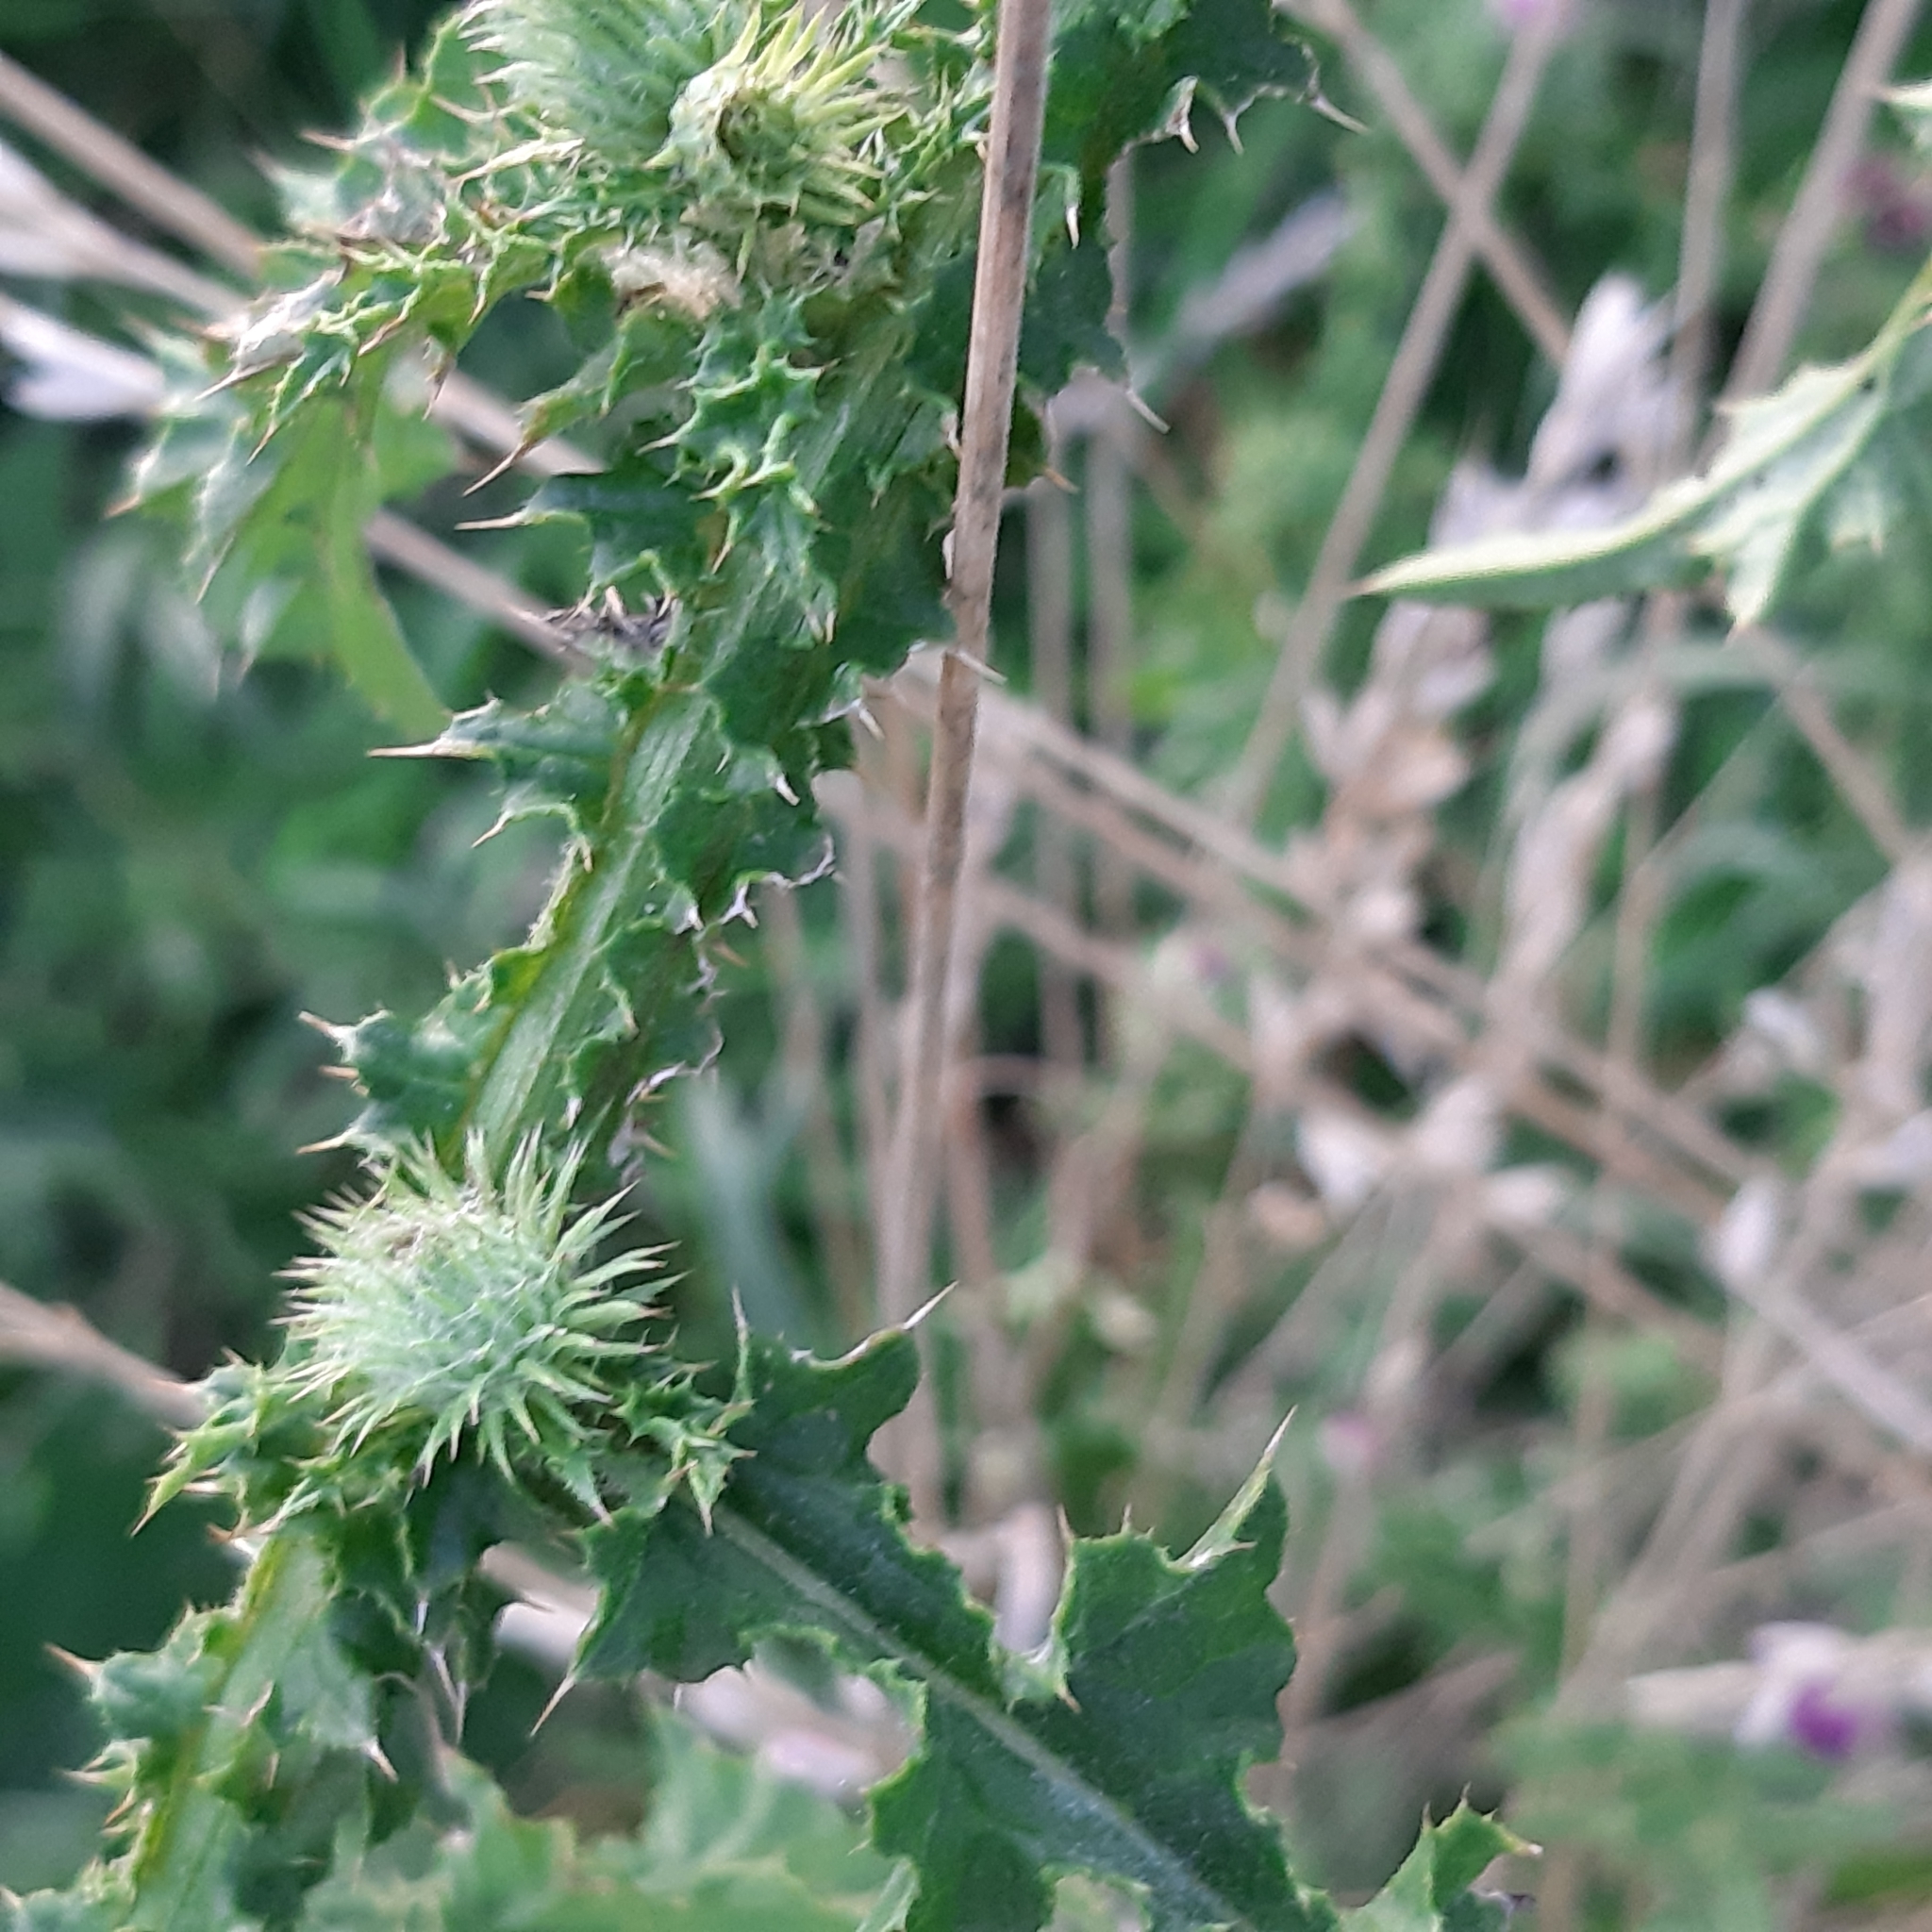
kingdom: Plantae
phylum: Tracheophyta
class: Magnoliopsida
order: Asterales
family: Asteraceae
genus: Carduus
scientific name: Carduus crispus
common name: Welted thistle
